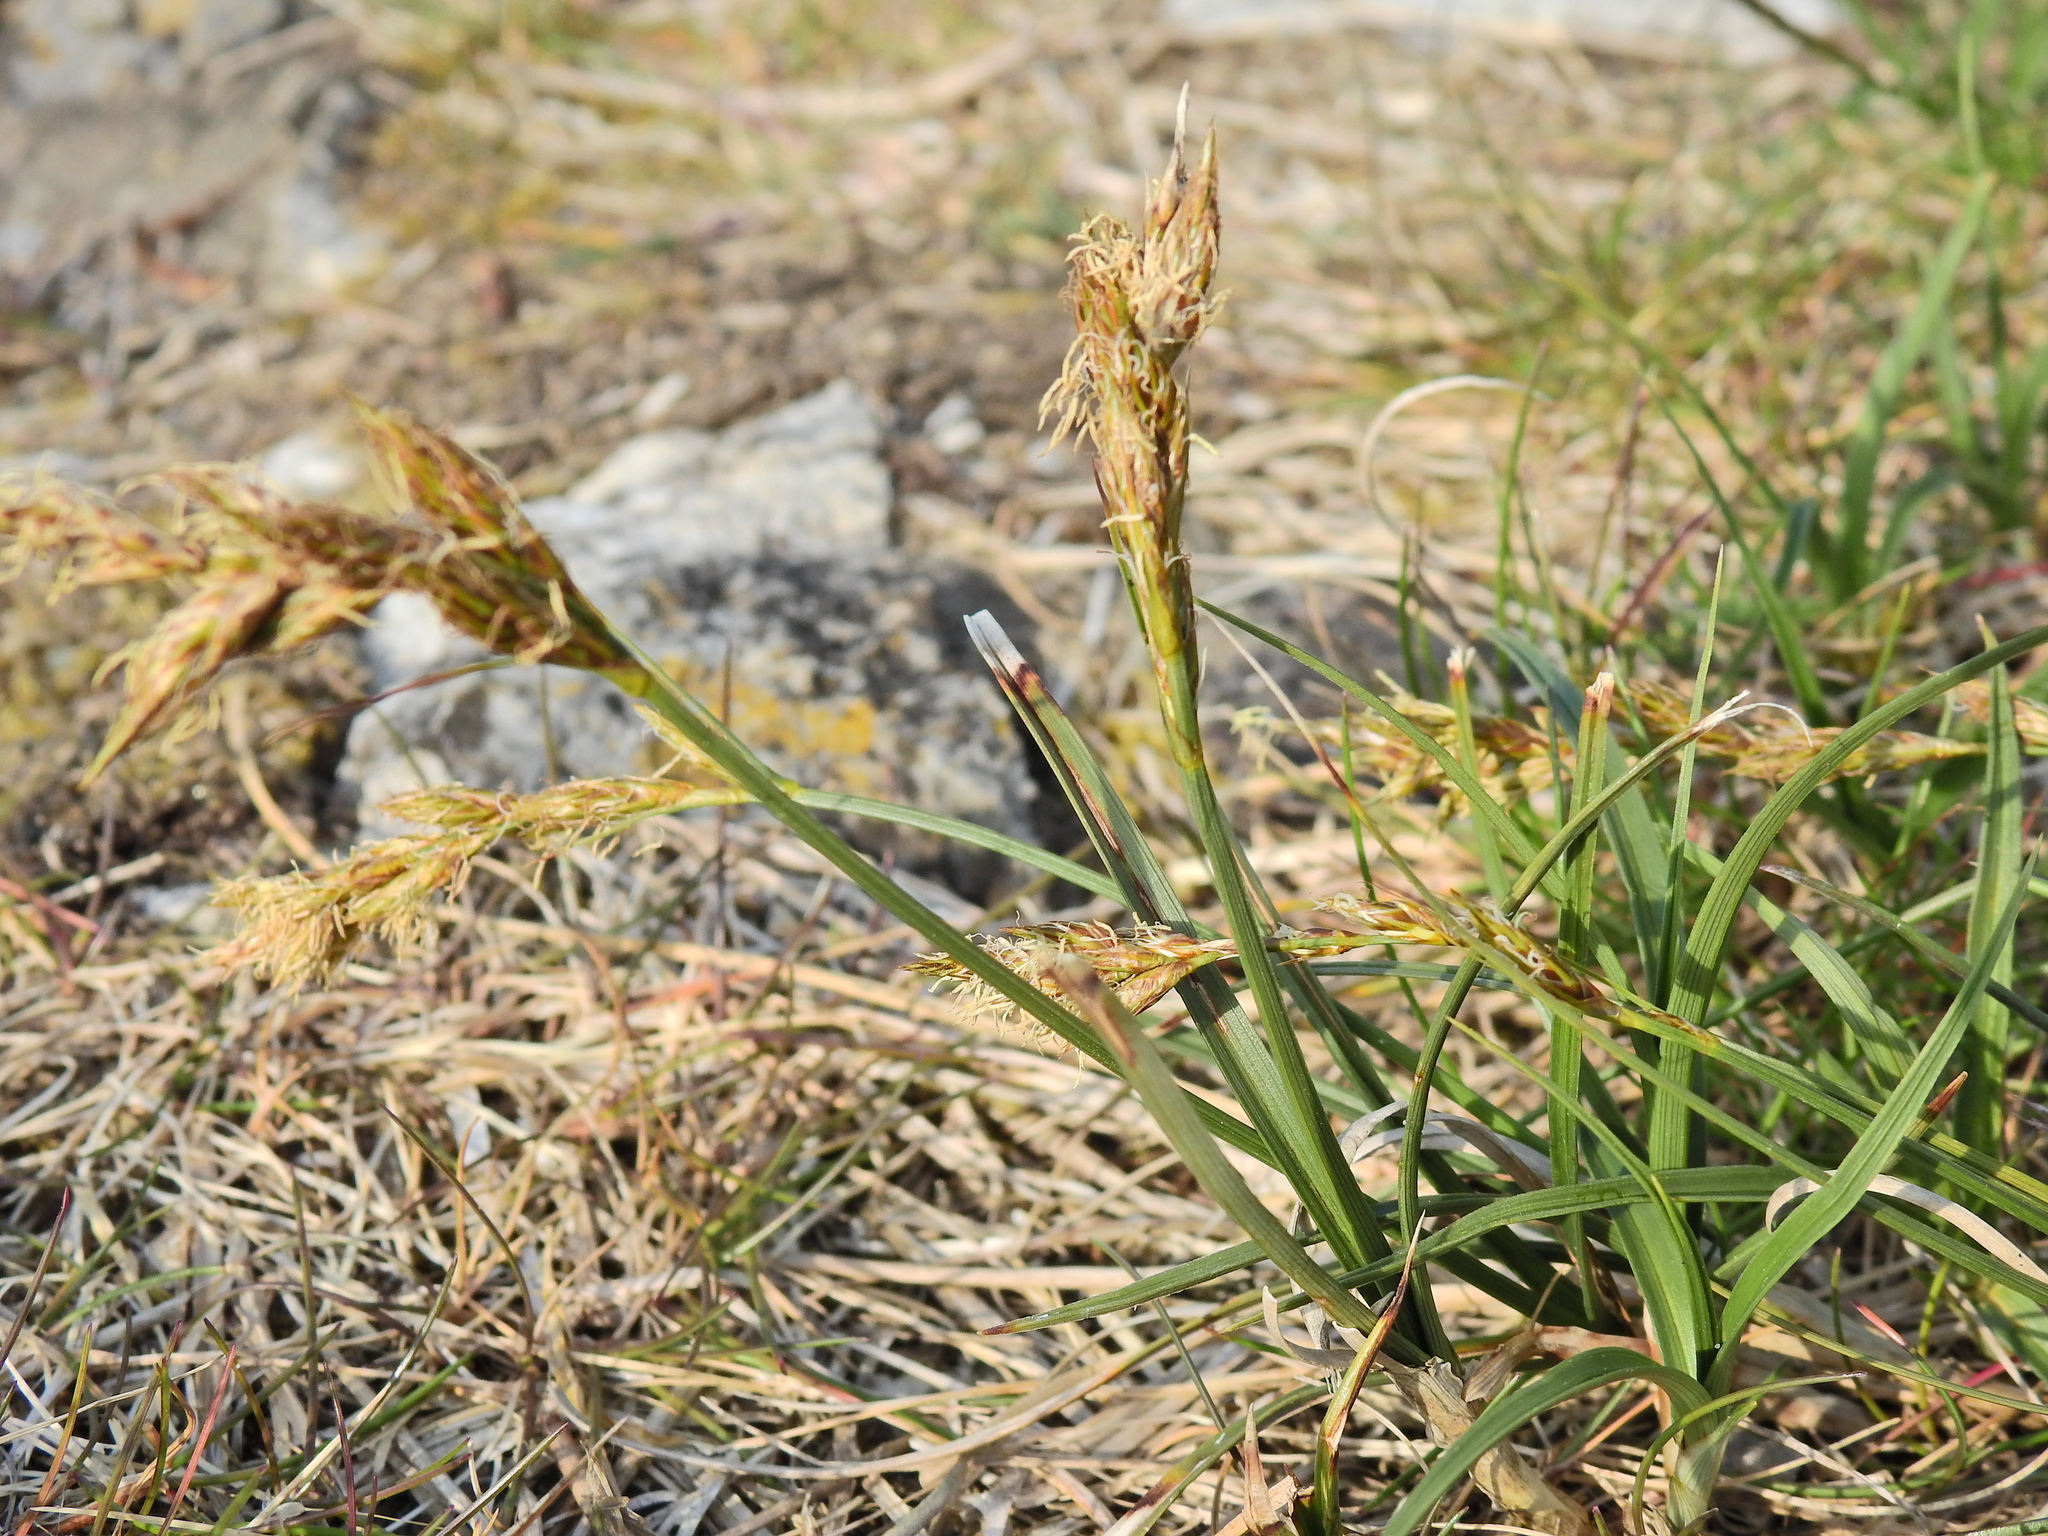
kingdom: Plantae
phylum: Tracheophyta
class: Liliopsida
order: Poales
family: Cyperaceae
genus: Carex
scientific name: Carex arenaria
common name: Sand sedge
